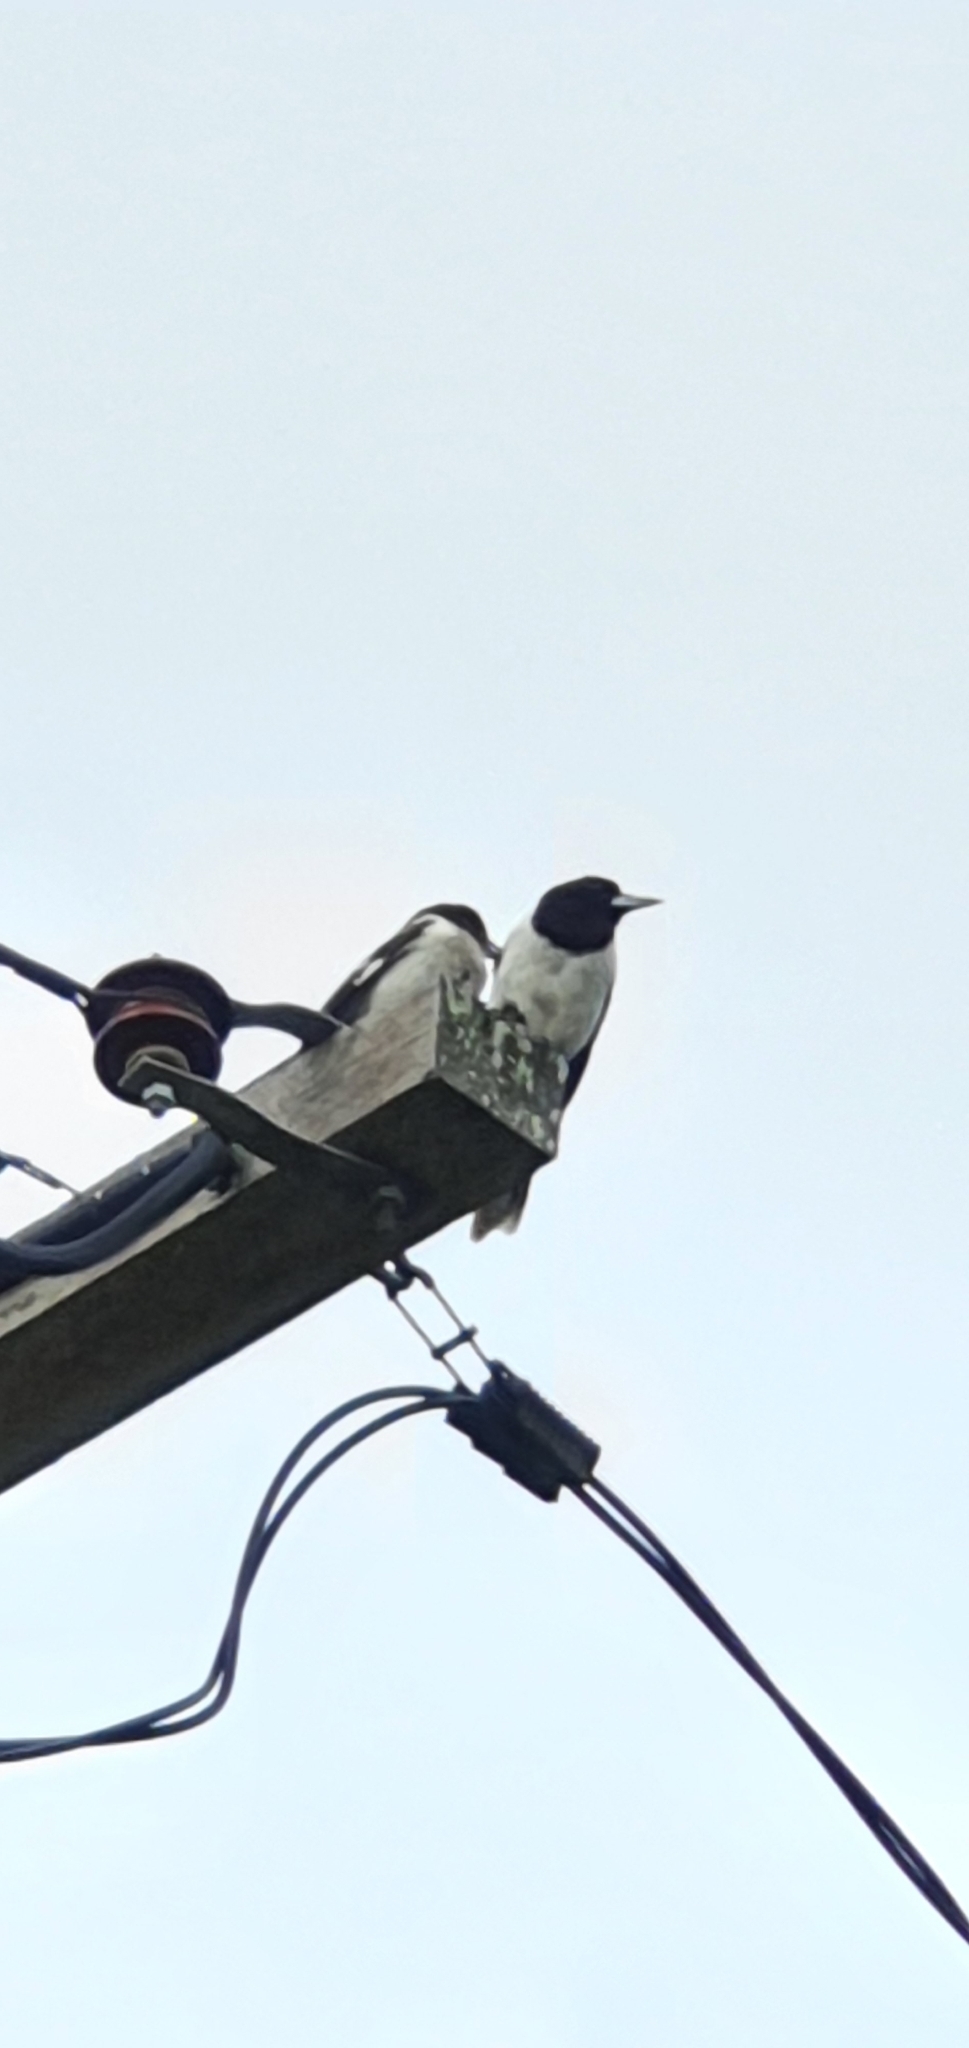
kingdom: Animalia
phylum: Chordata
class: Aves
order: Passeriformes
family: Cracticidae
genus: Cracticus
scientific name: Cracticus nigrogularis
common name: Pied butcherbird
